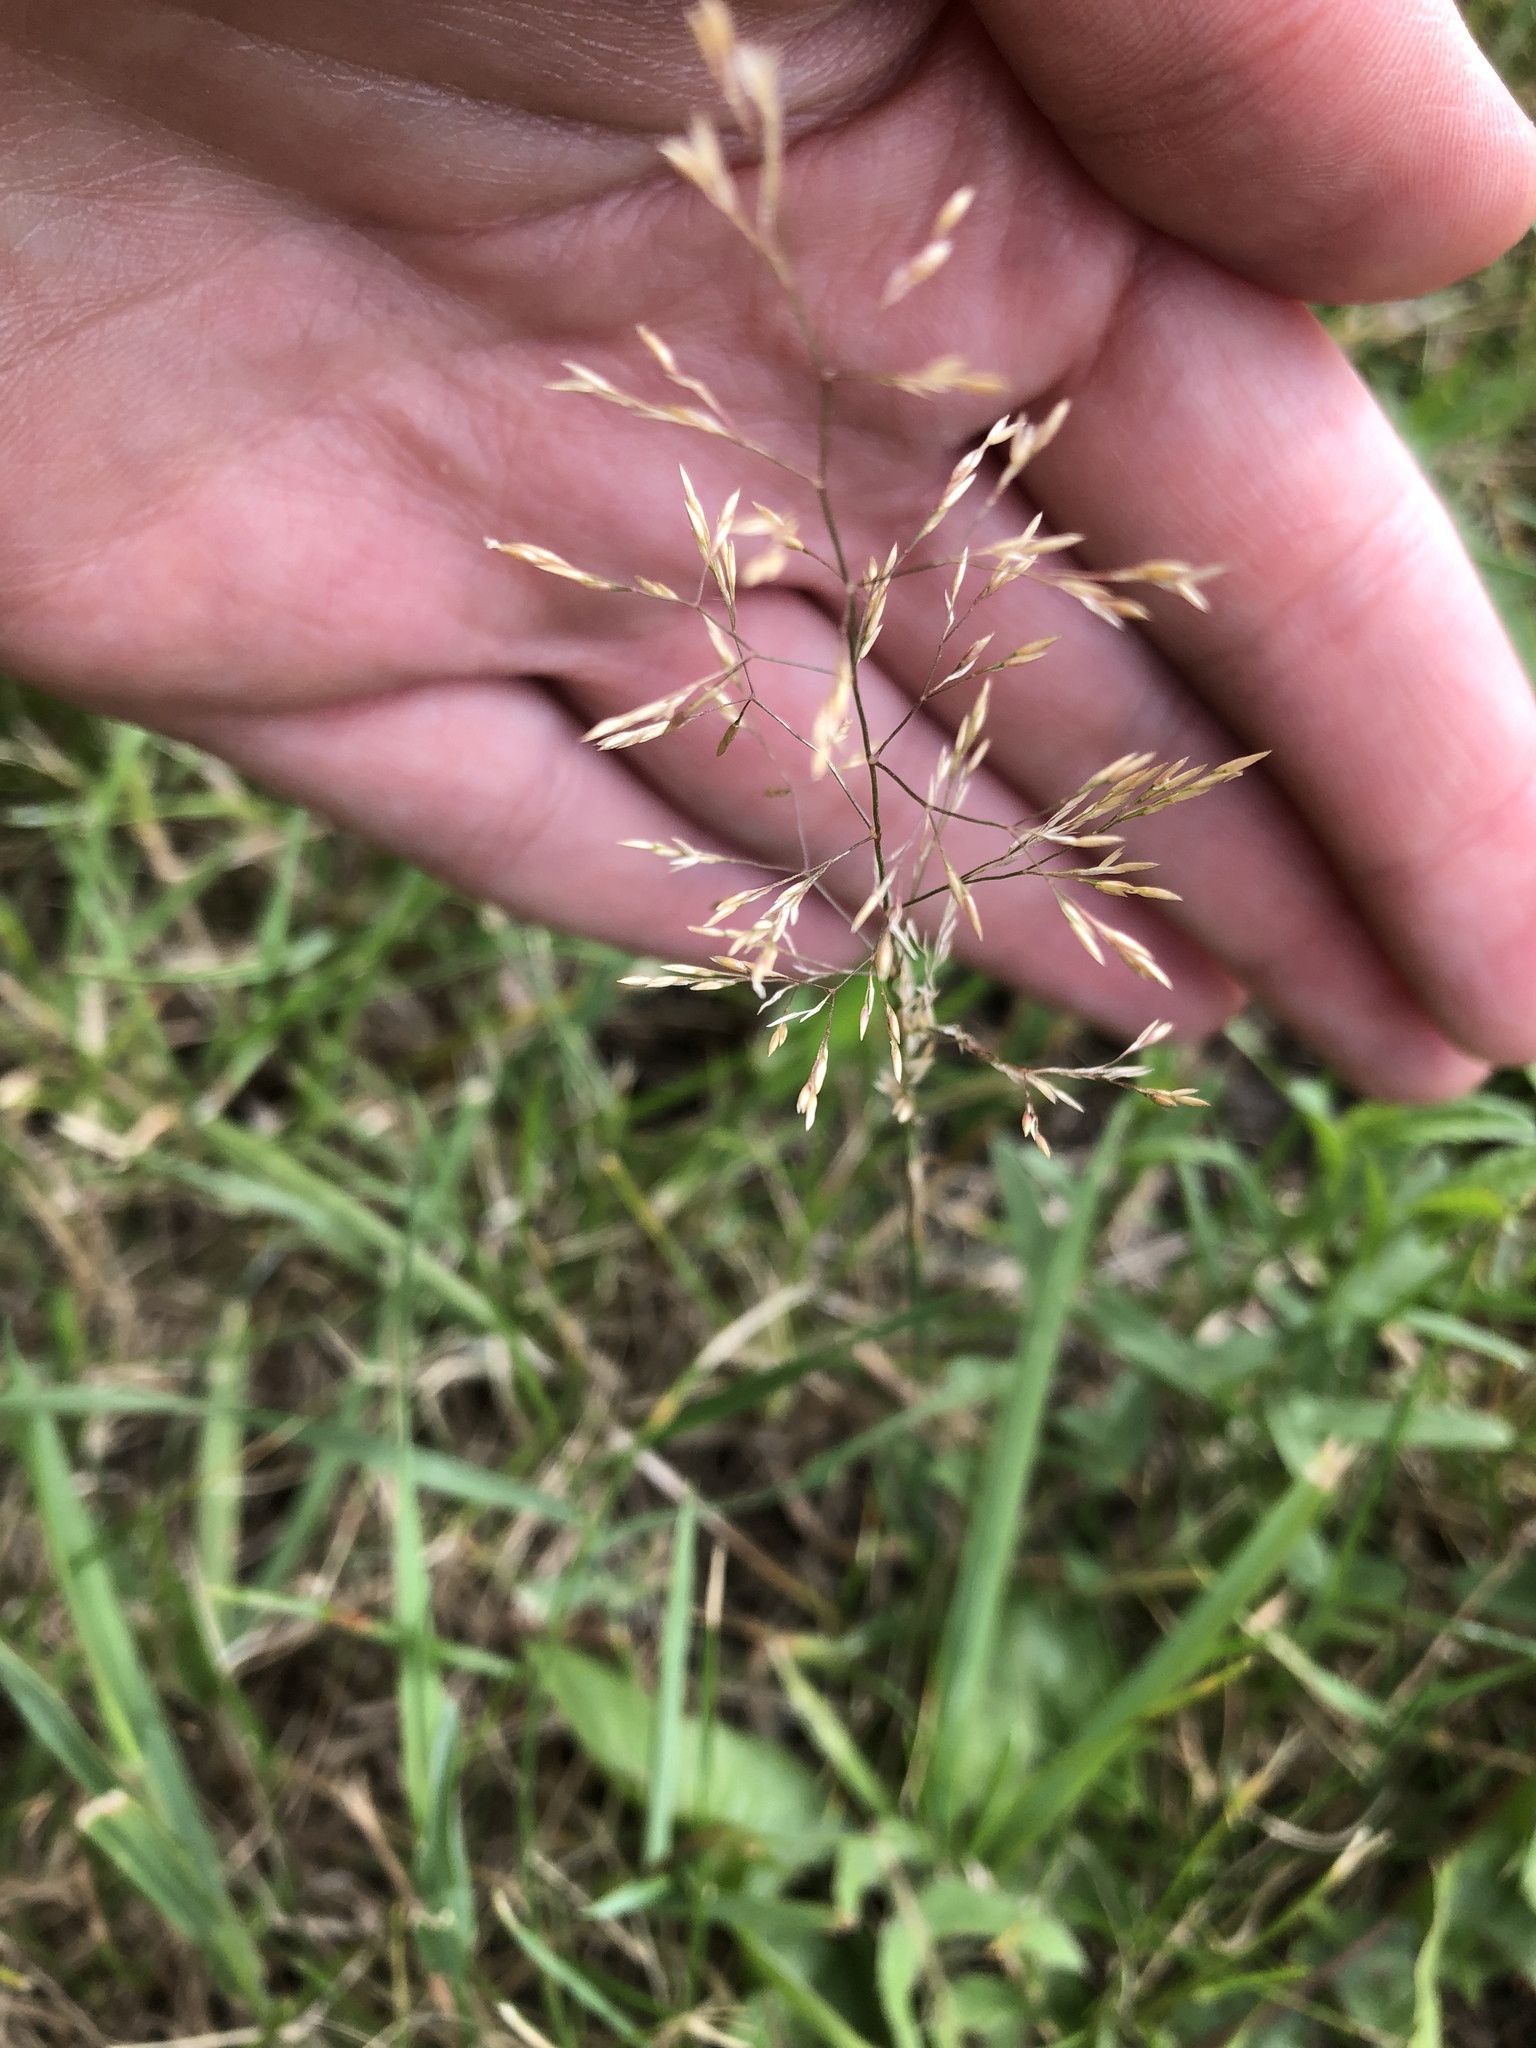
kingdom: Plantae
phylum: Tracheophyta
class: Liliopsida
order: Poales
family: Poaceae
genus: Agrostis
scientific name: Agrostis capillaris
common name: Colonial bentgrass
